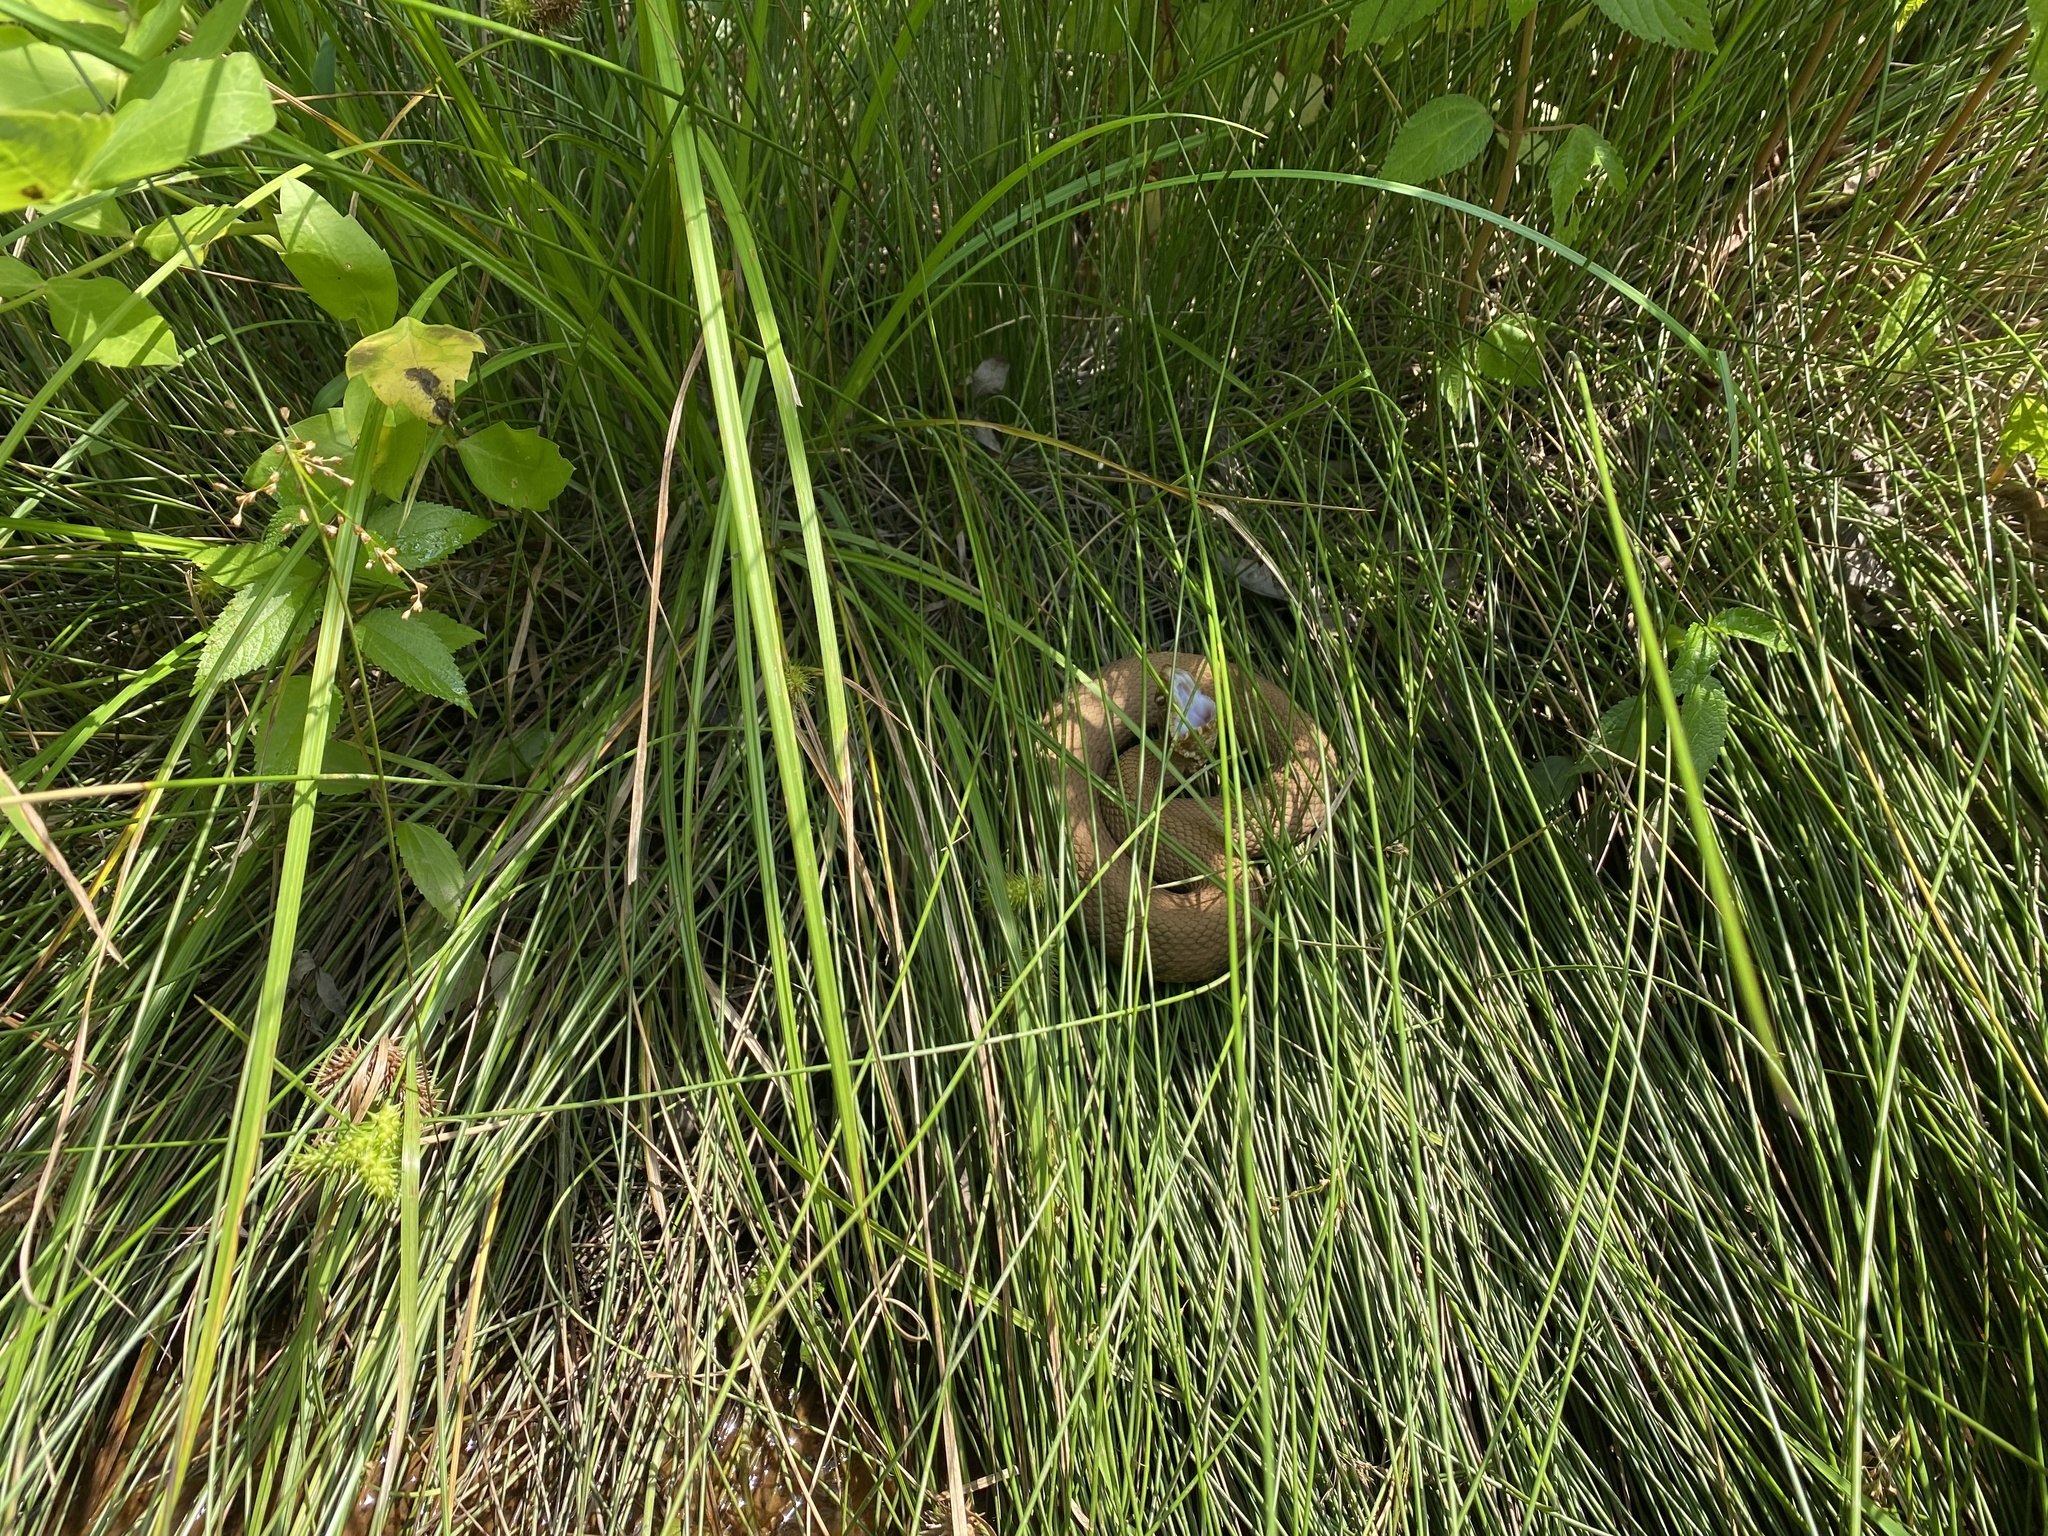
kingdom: Animalia
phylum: Chordata
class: Squamata
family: Viperidae
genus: Agkistrodon
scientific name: Agkistrodon piscivorus
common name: Cottonmouth
